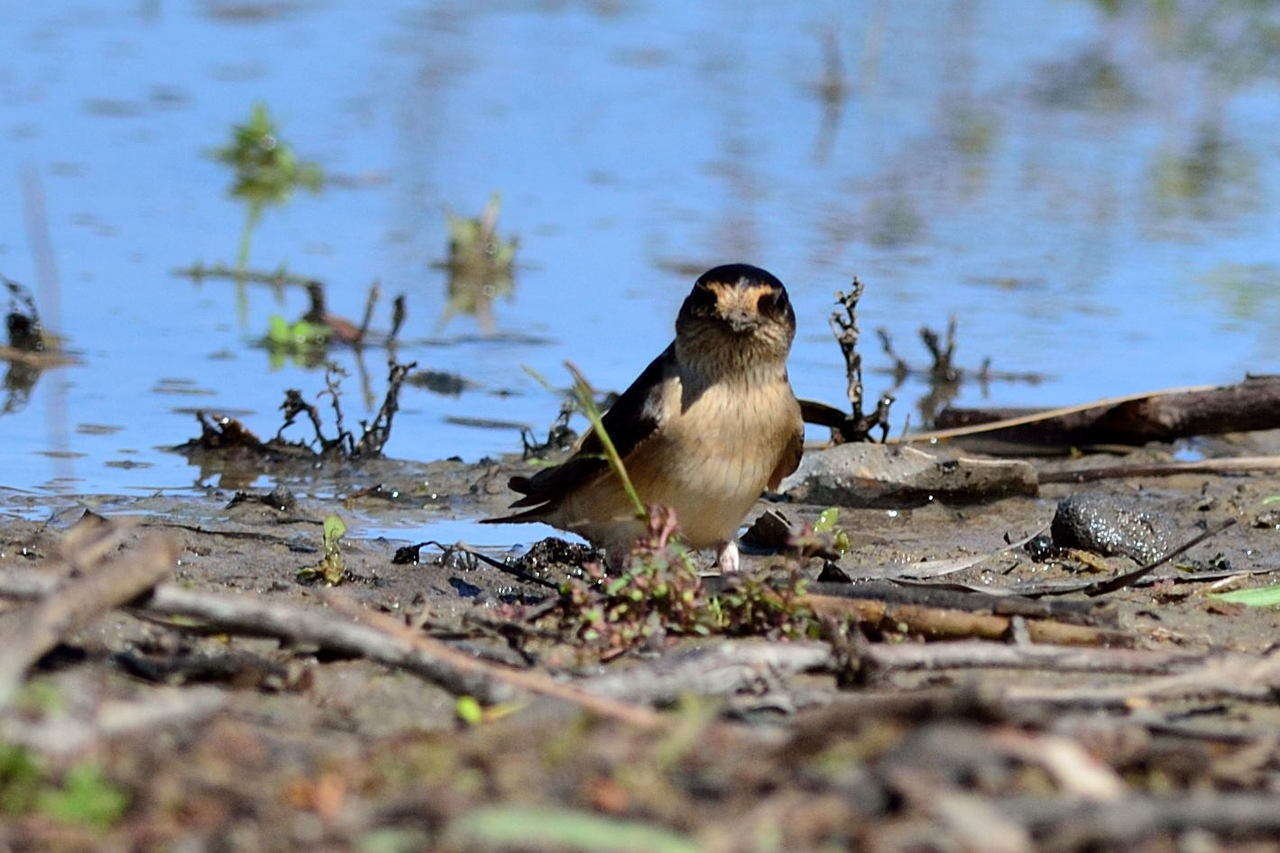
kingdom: Animalia
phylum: Chordata
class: Aves
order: Passeriformes
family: Hirundinidae
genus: Petrochelidon
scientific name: Petrochelidon nigricans
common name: Tree martin
